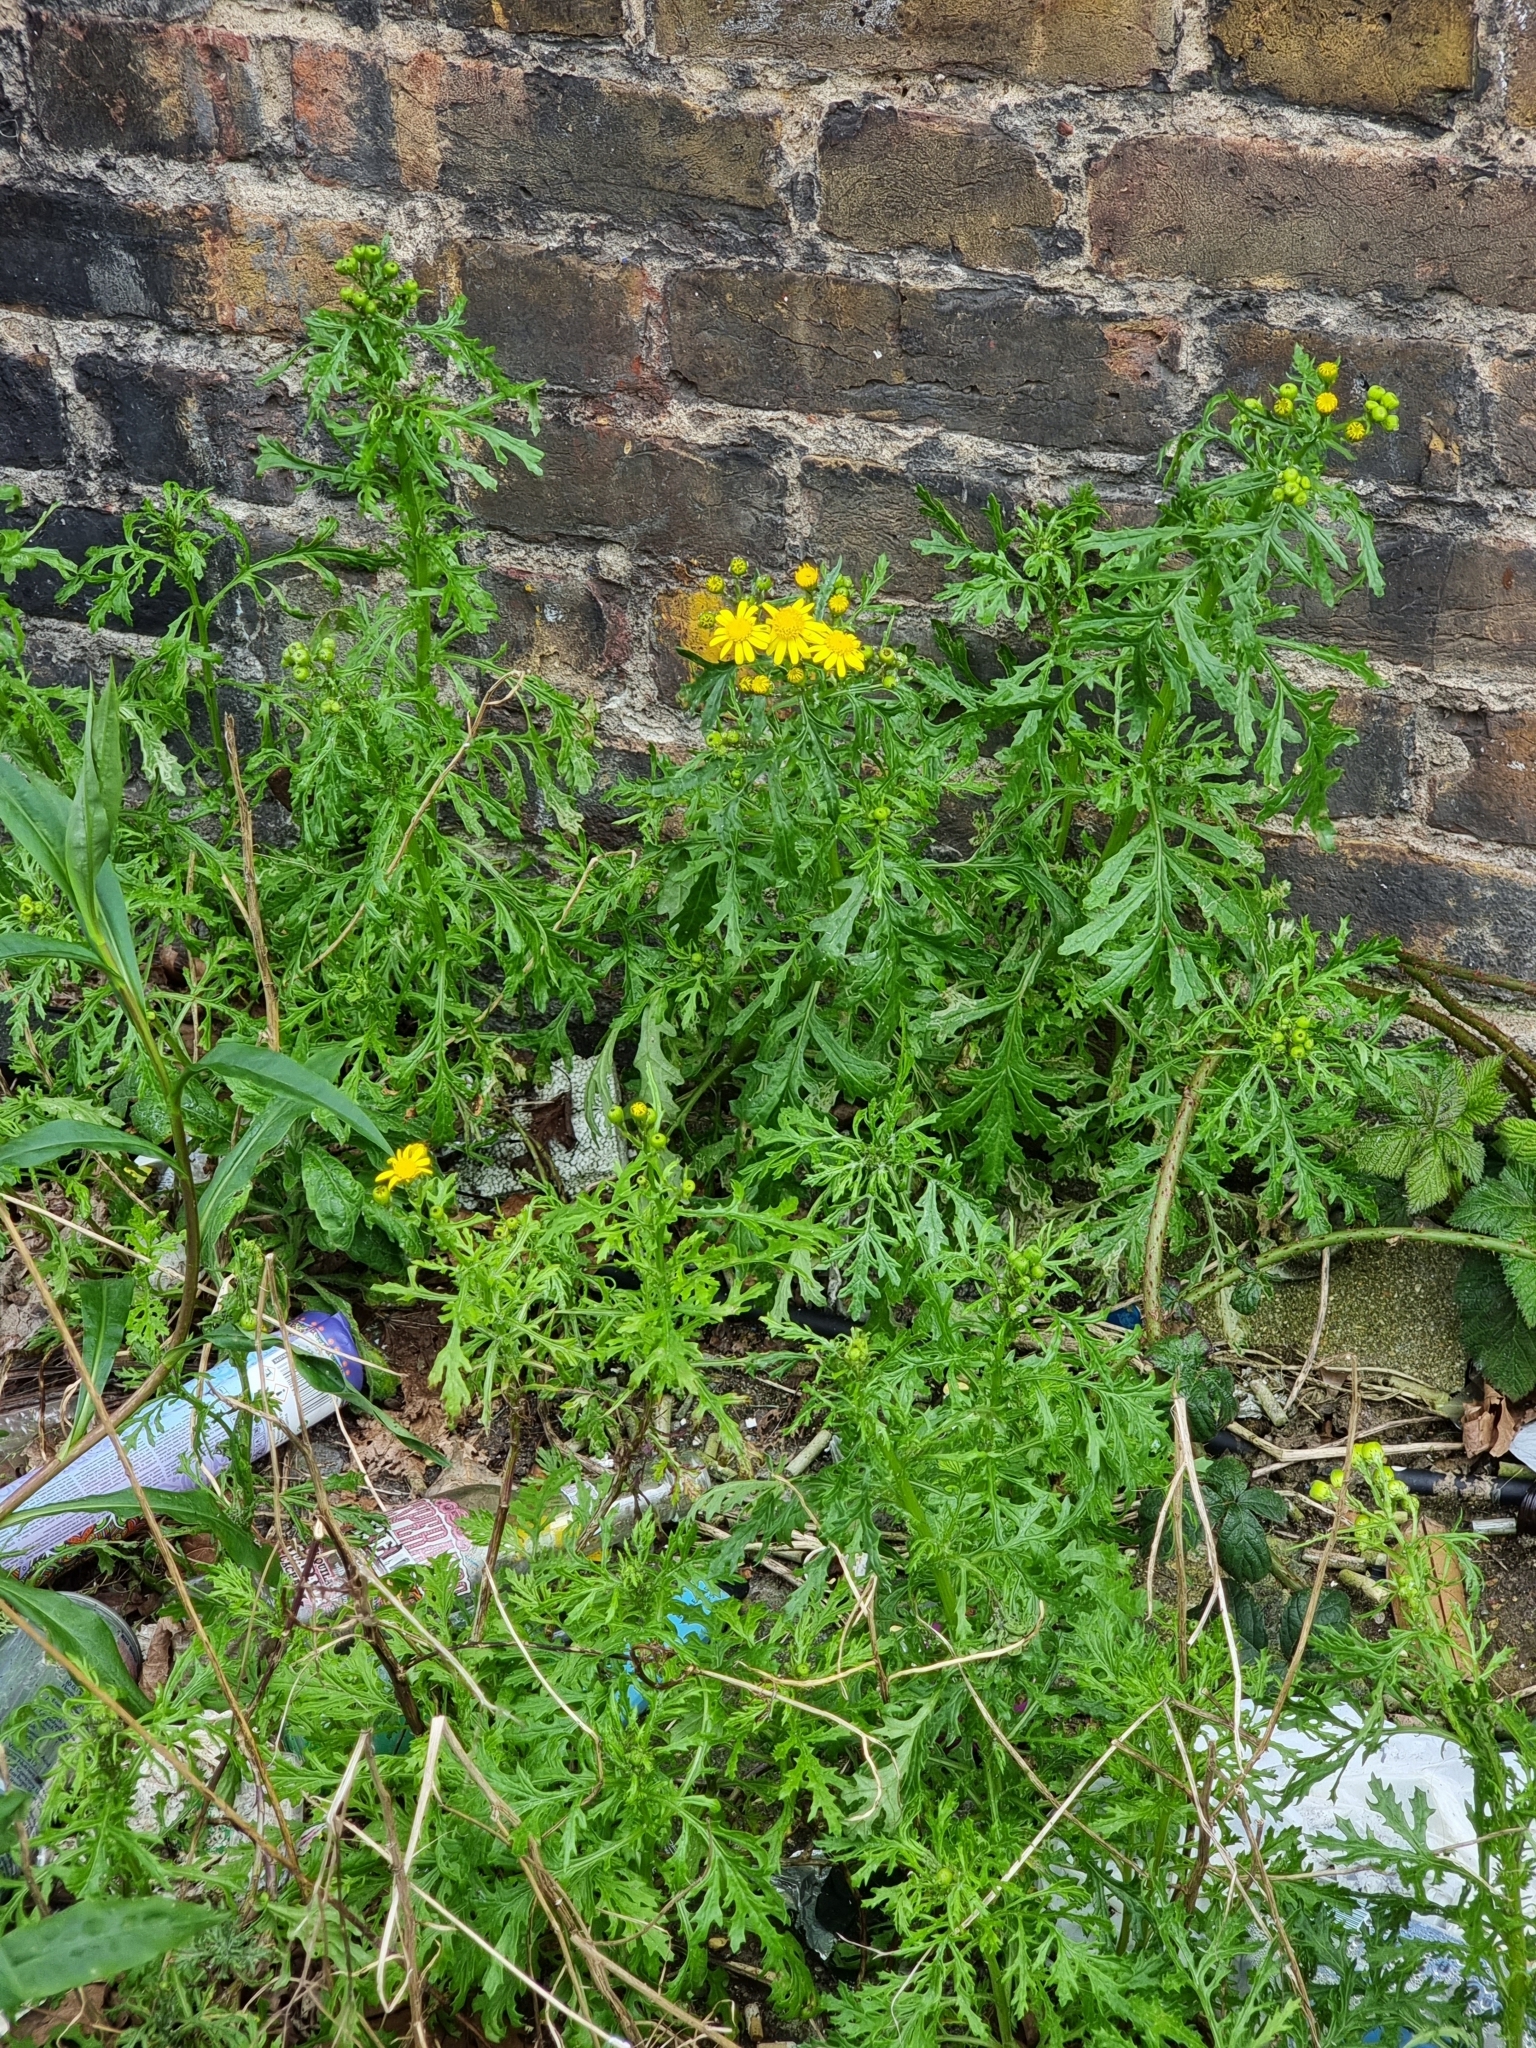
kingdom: Plantae
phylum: Tracheophyta
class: Magnoliopsida
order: Asterales
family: Asteraceae
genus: Senecio
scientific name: Senecio squalidus
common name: Oxford ragwort
